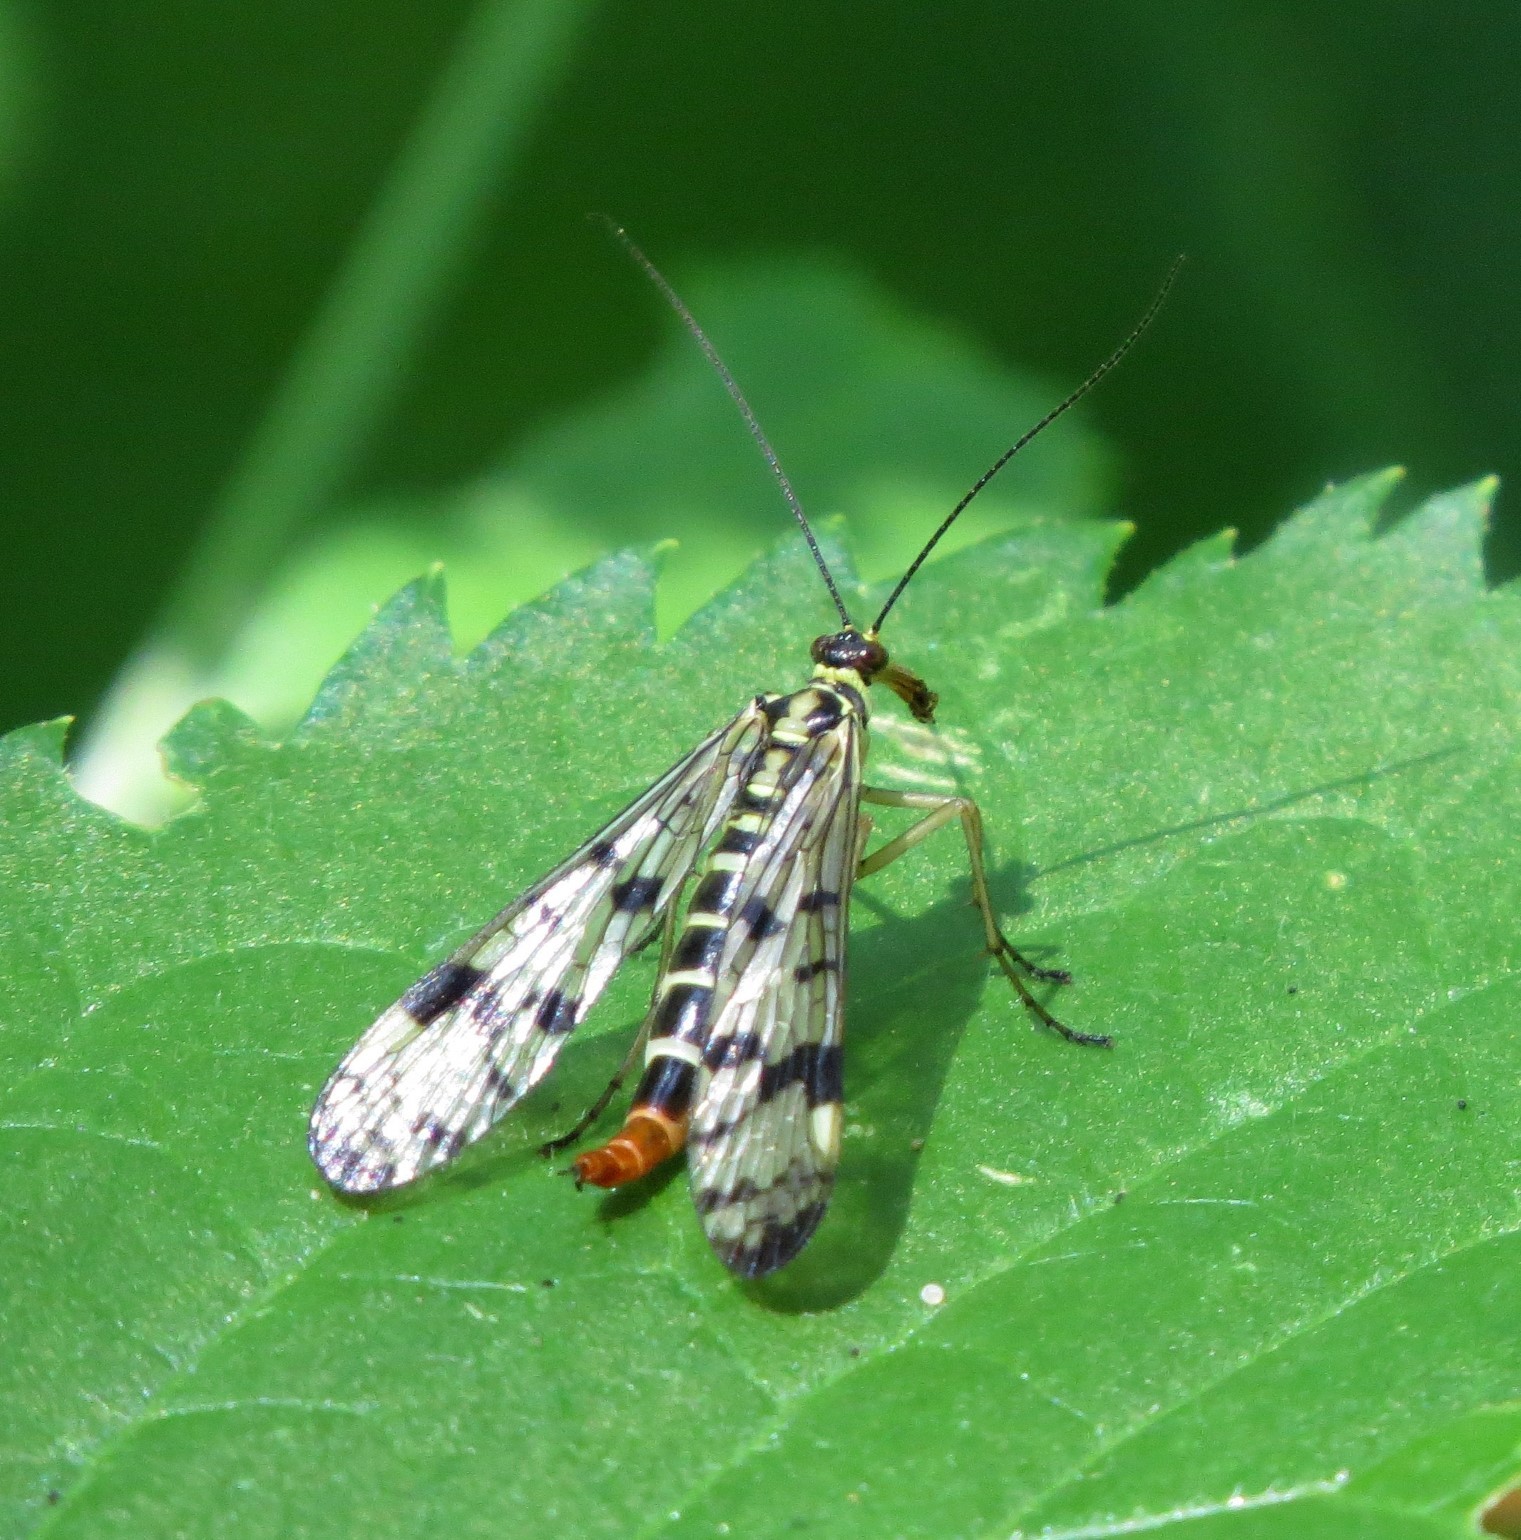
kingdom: Animalia
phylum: Arthropoda
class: Insecta
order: Mecoptera
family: Panorpidae
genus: Panorpa
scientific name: Panorpa communis
